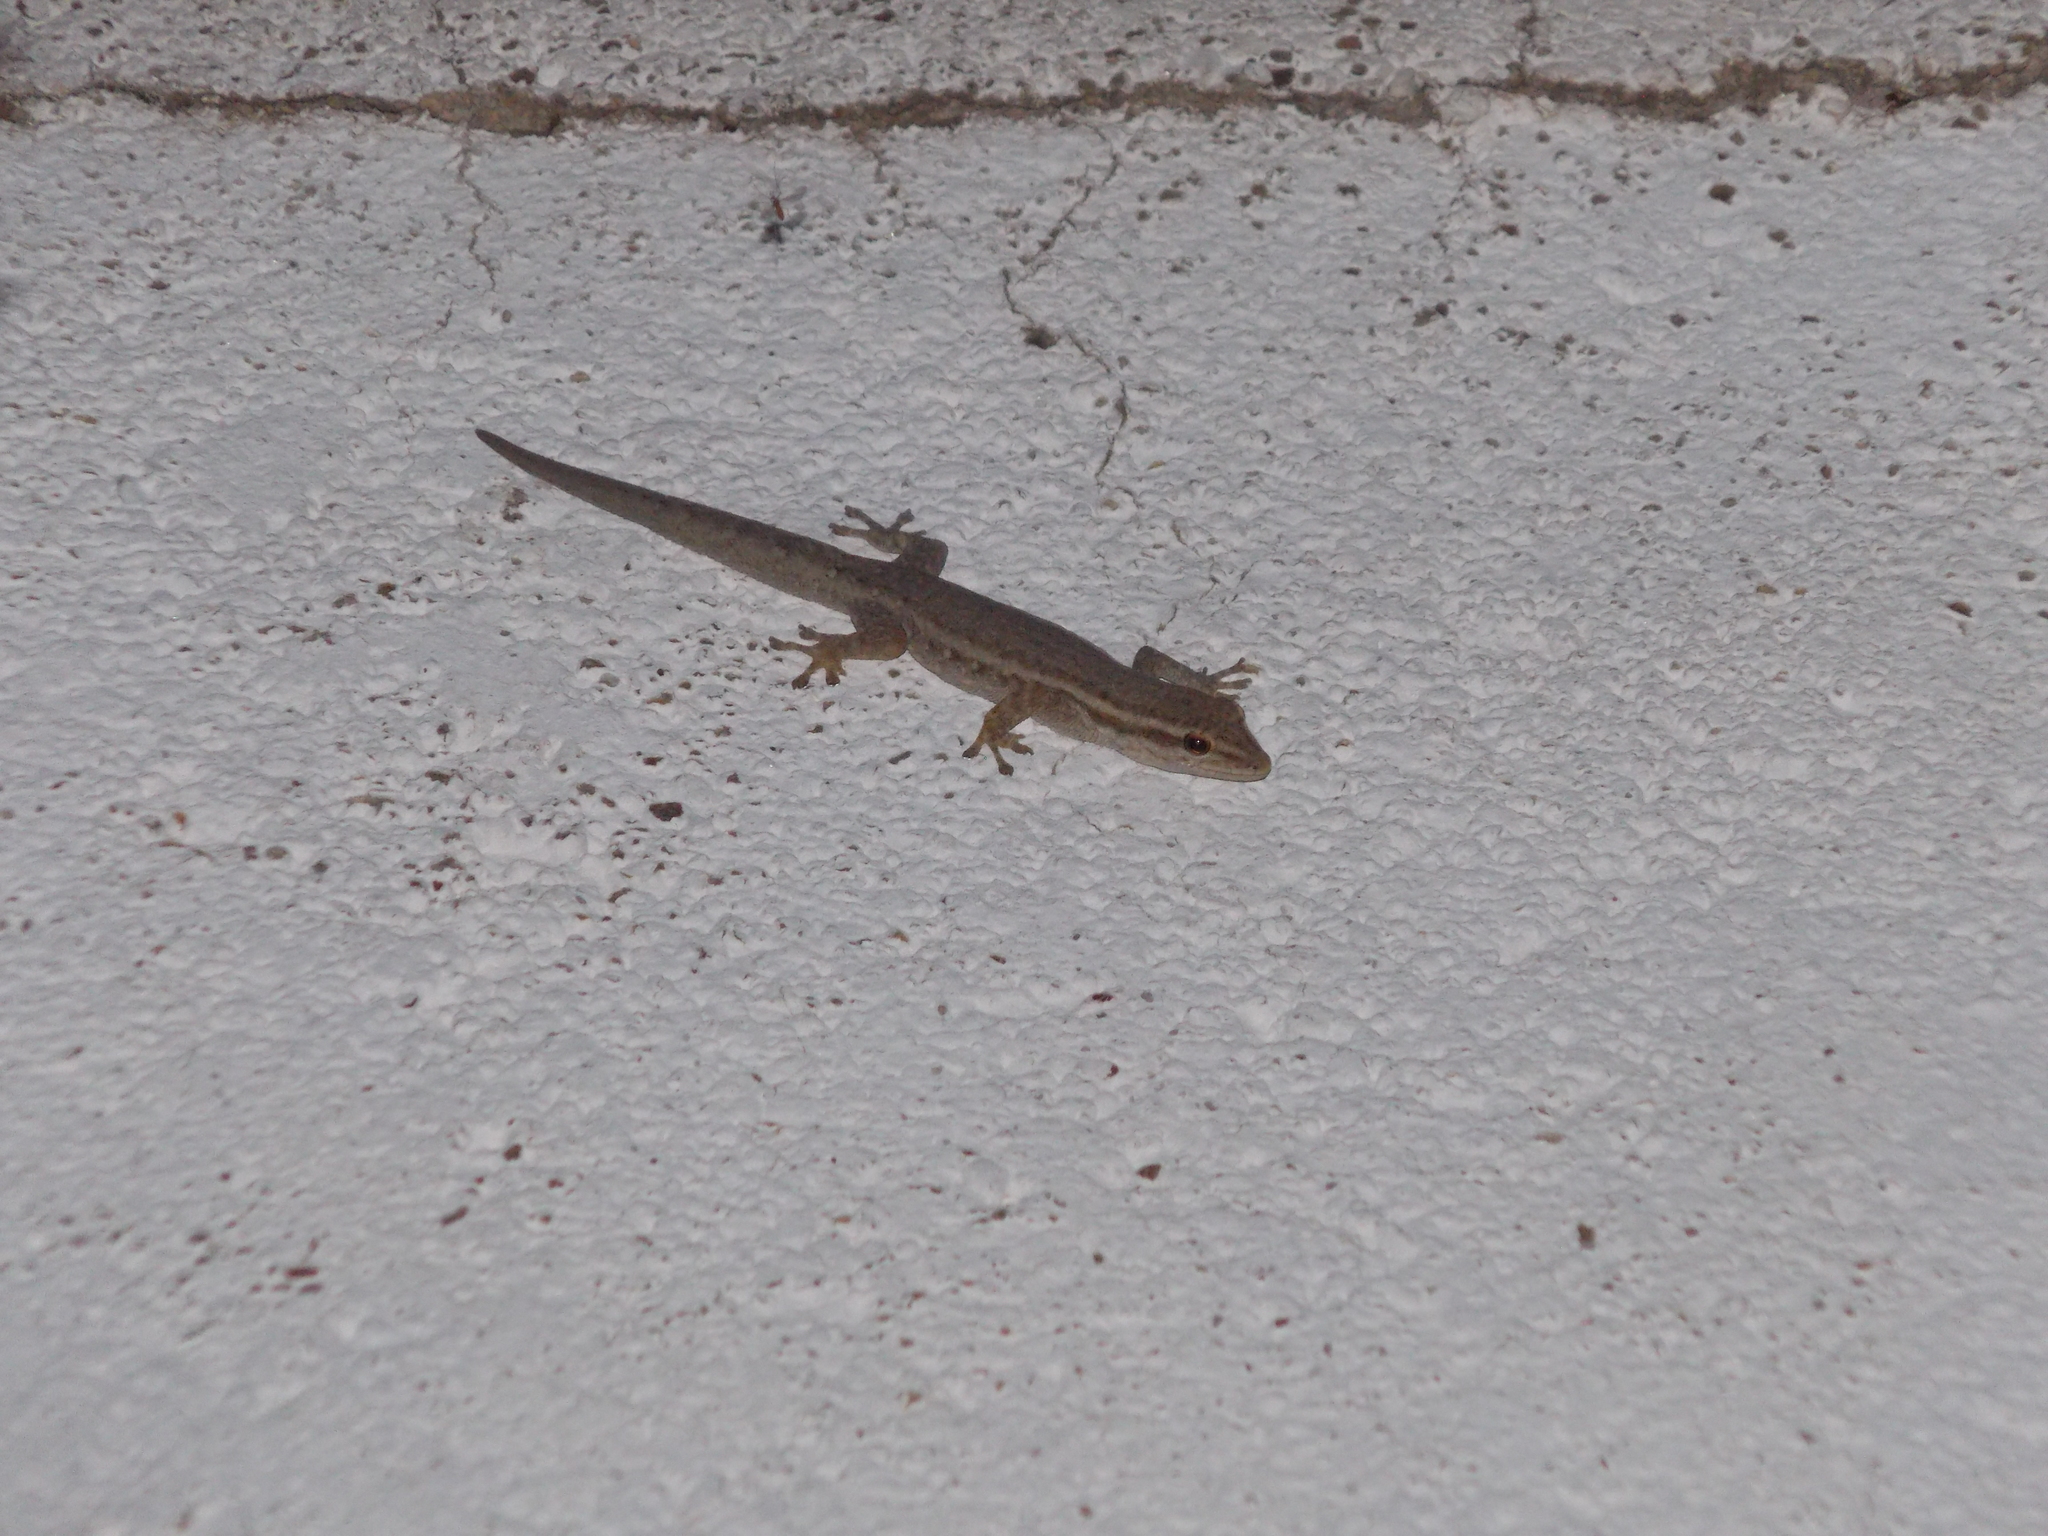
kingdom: Animalia
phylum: Chordata
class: Squamata
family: Gekkonidae
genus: Lygodactylus
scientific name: Lygodactylus capensis
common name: Cape dwarf gecko
